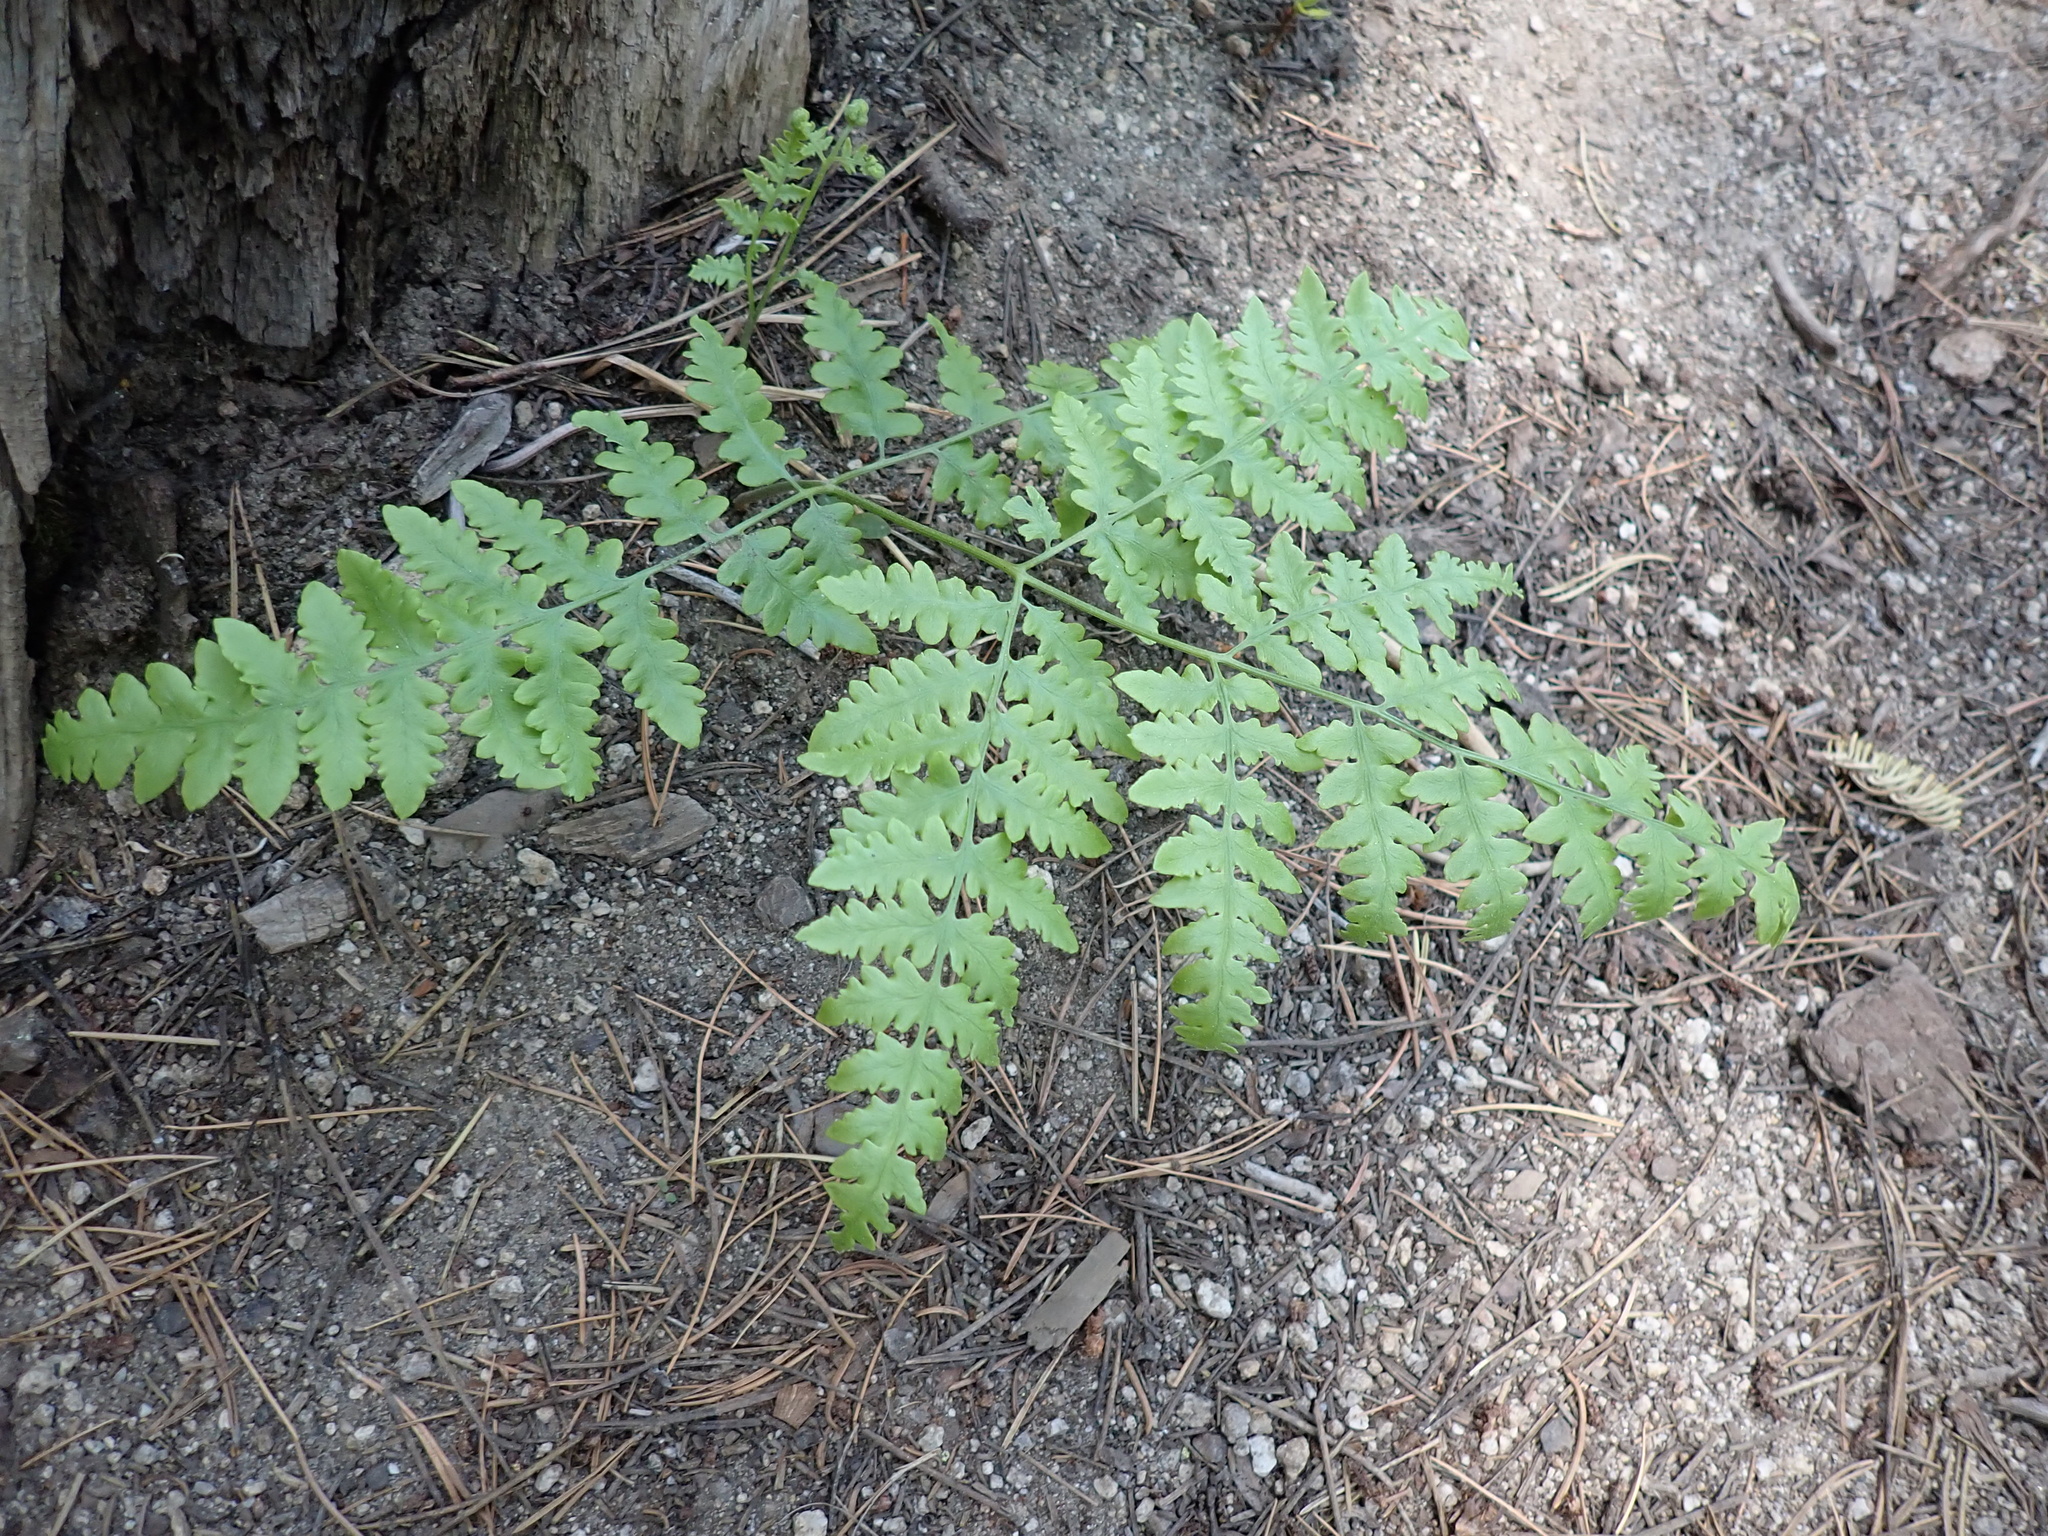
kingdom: Plantae
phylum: Tracheophyta
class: Polypodiopsida
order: Polypodiales
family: Dennstaedtiaceae
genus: Pteridium
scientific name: Pteridium aquilinum
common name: Bracken
